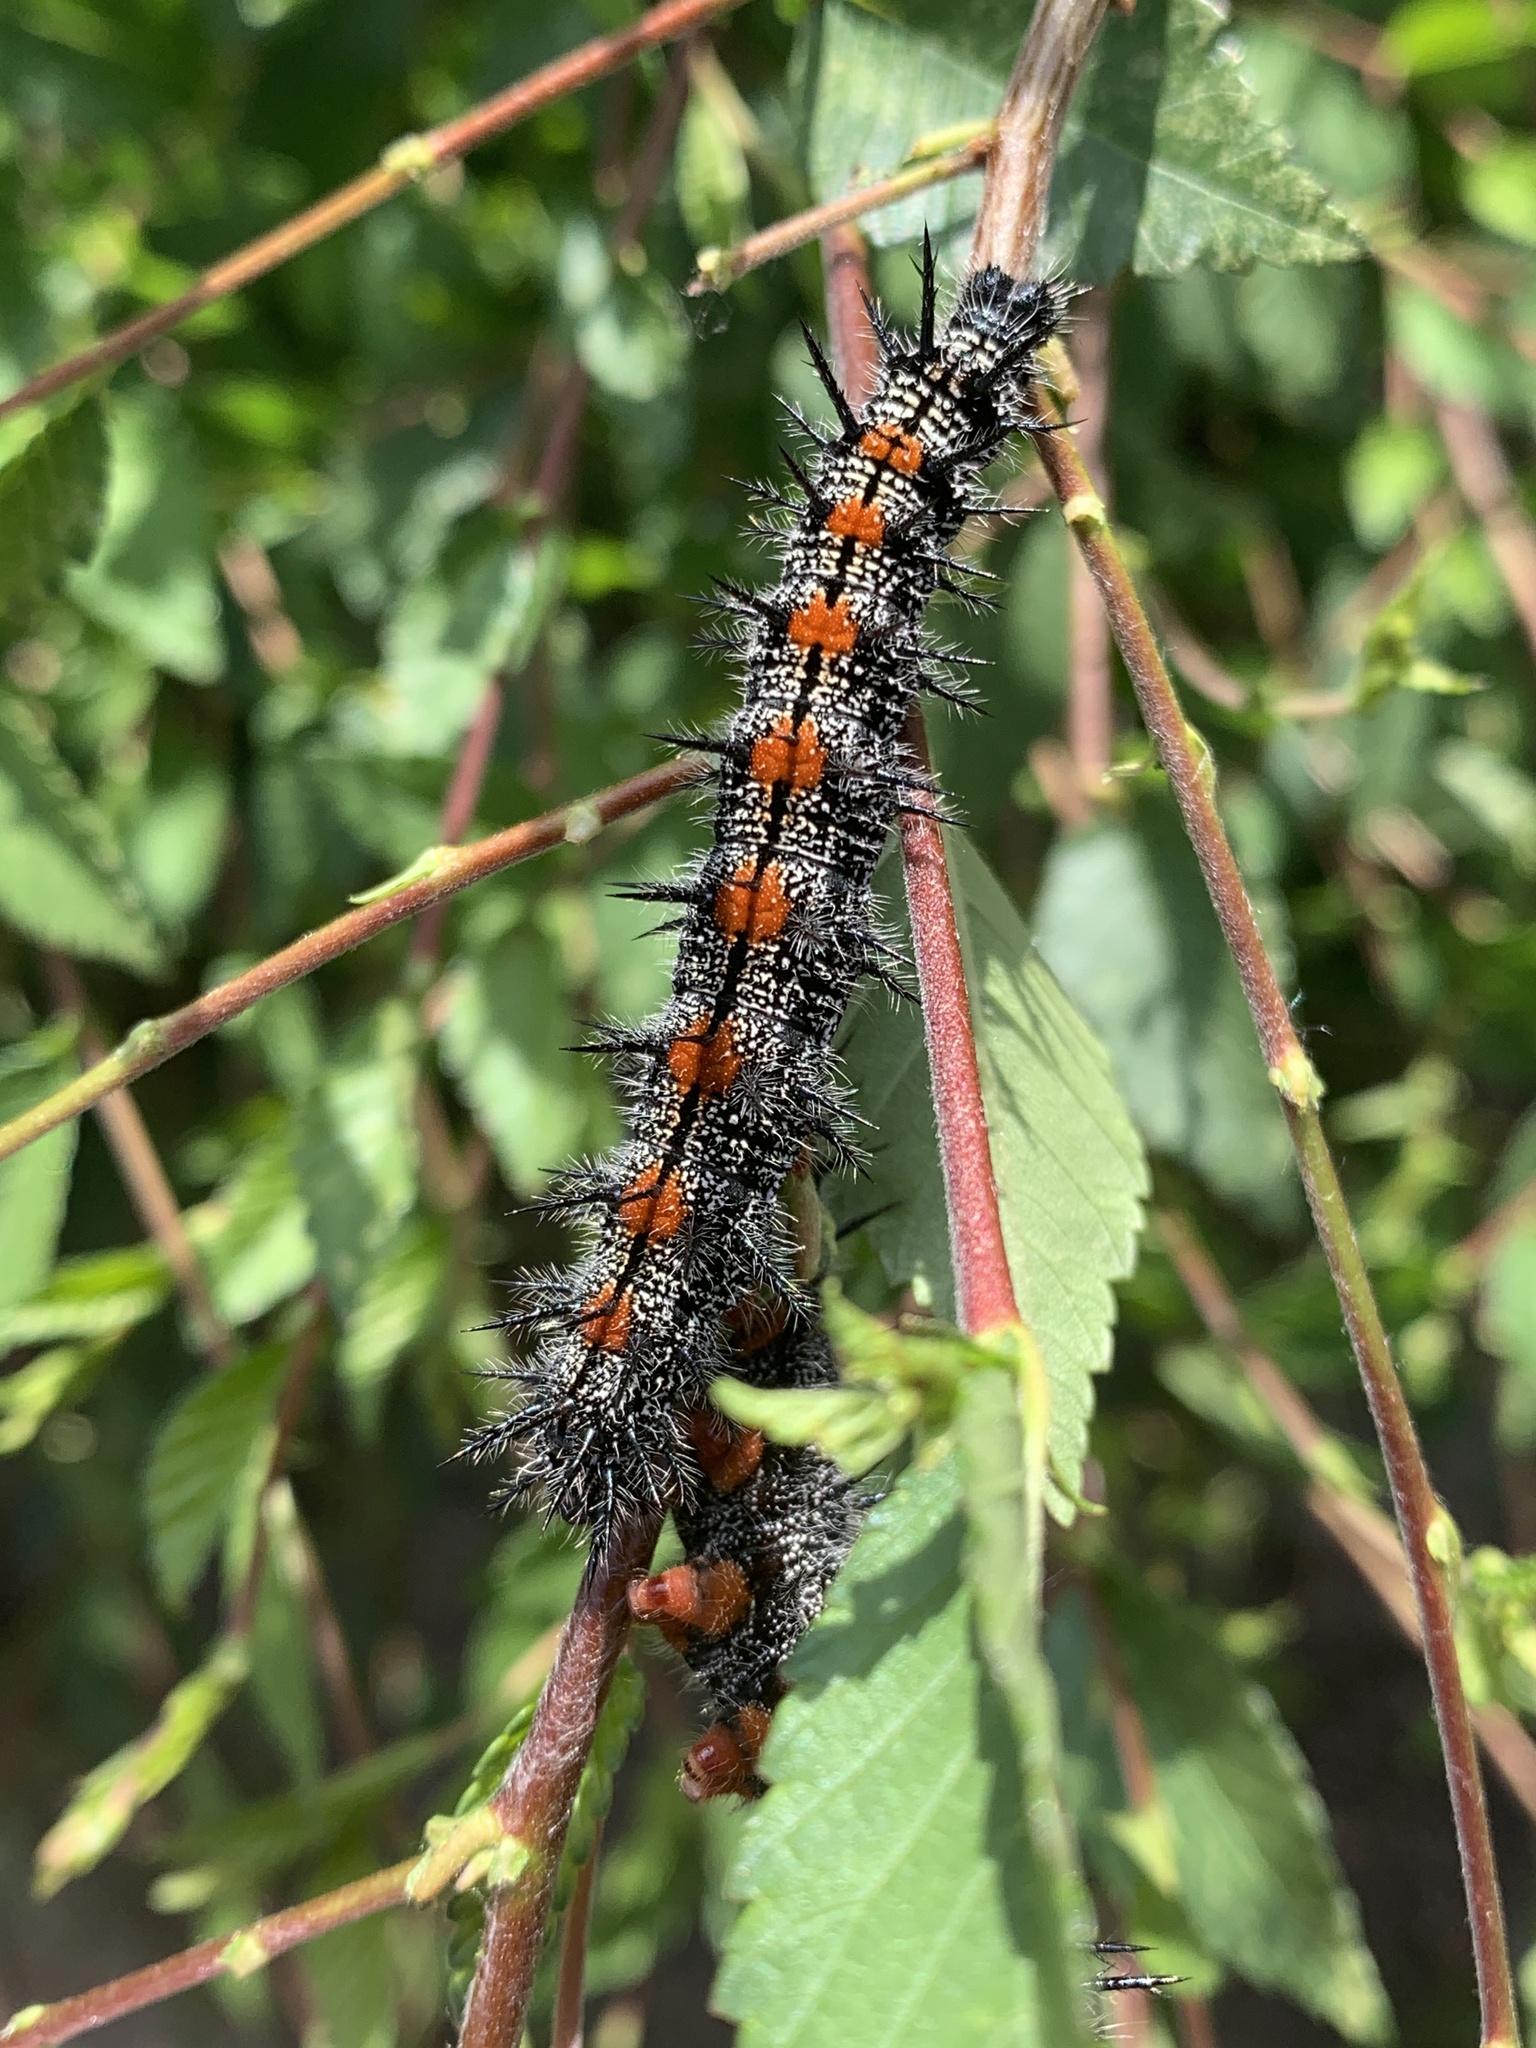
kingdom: Animalia
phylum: Arthropoda
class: Insecta
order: Lepidoptera
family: Nymphalidae
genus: Nymphalis
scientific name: Nymphalis antiopa
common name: Camberwell beauty
